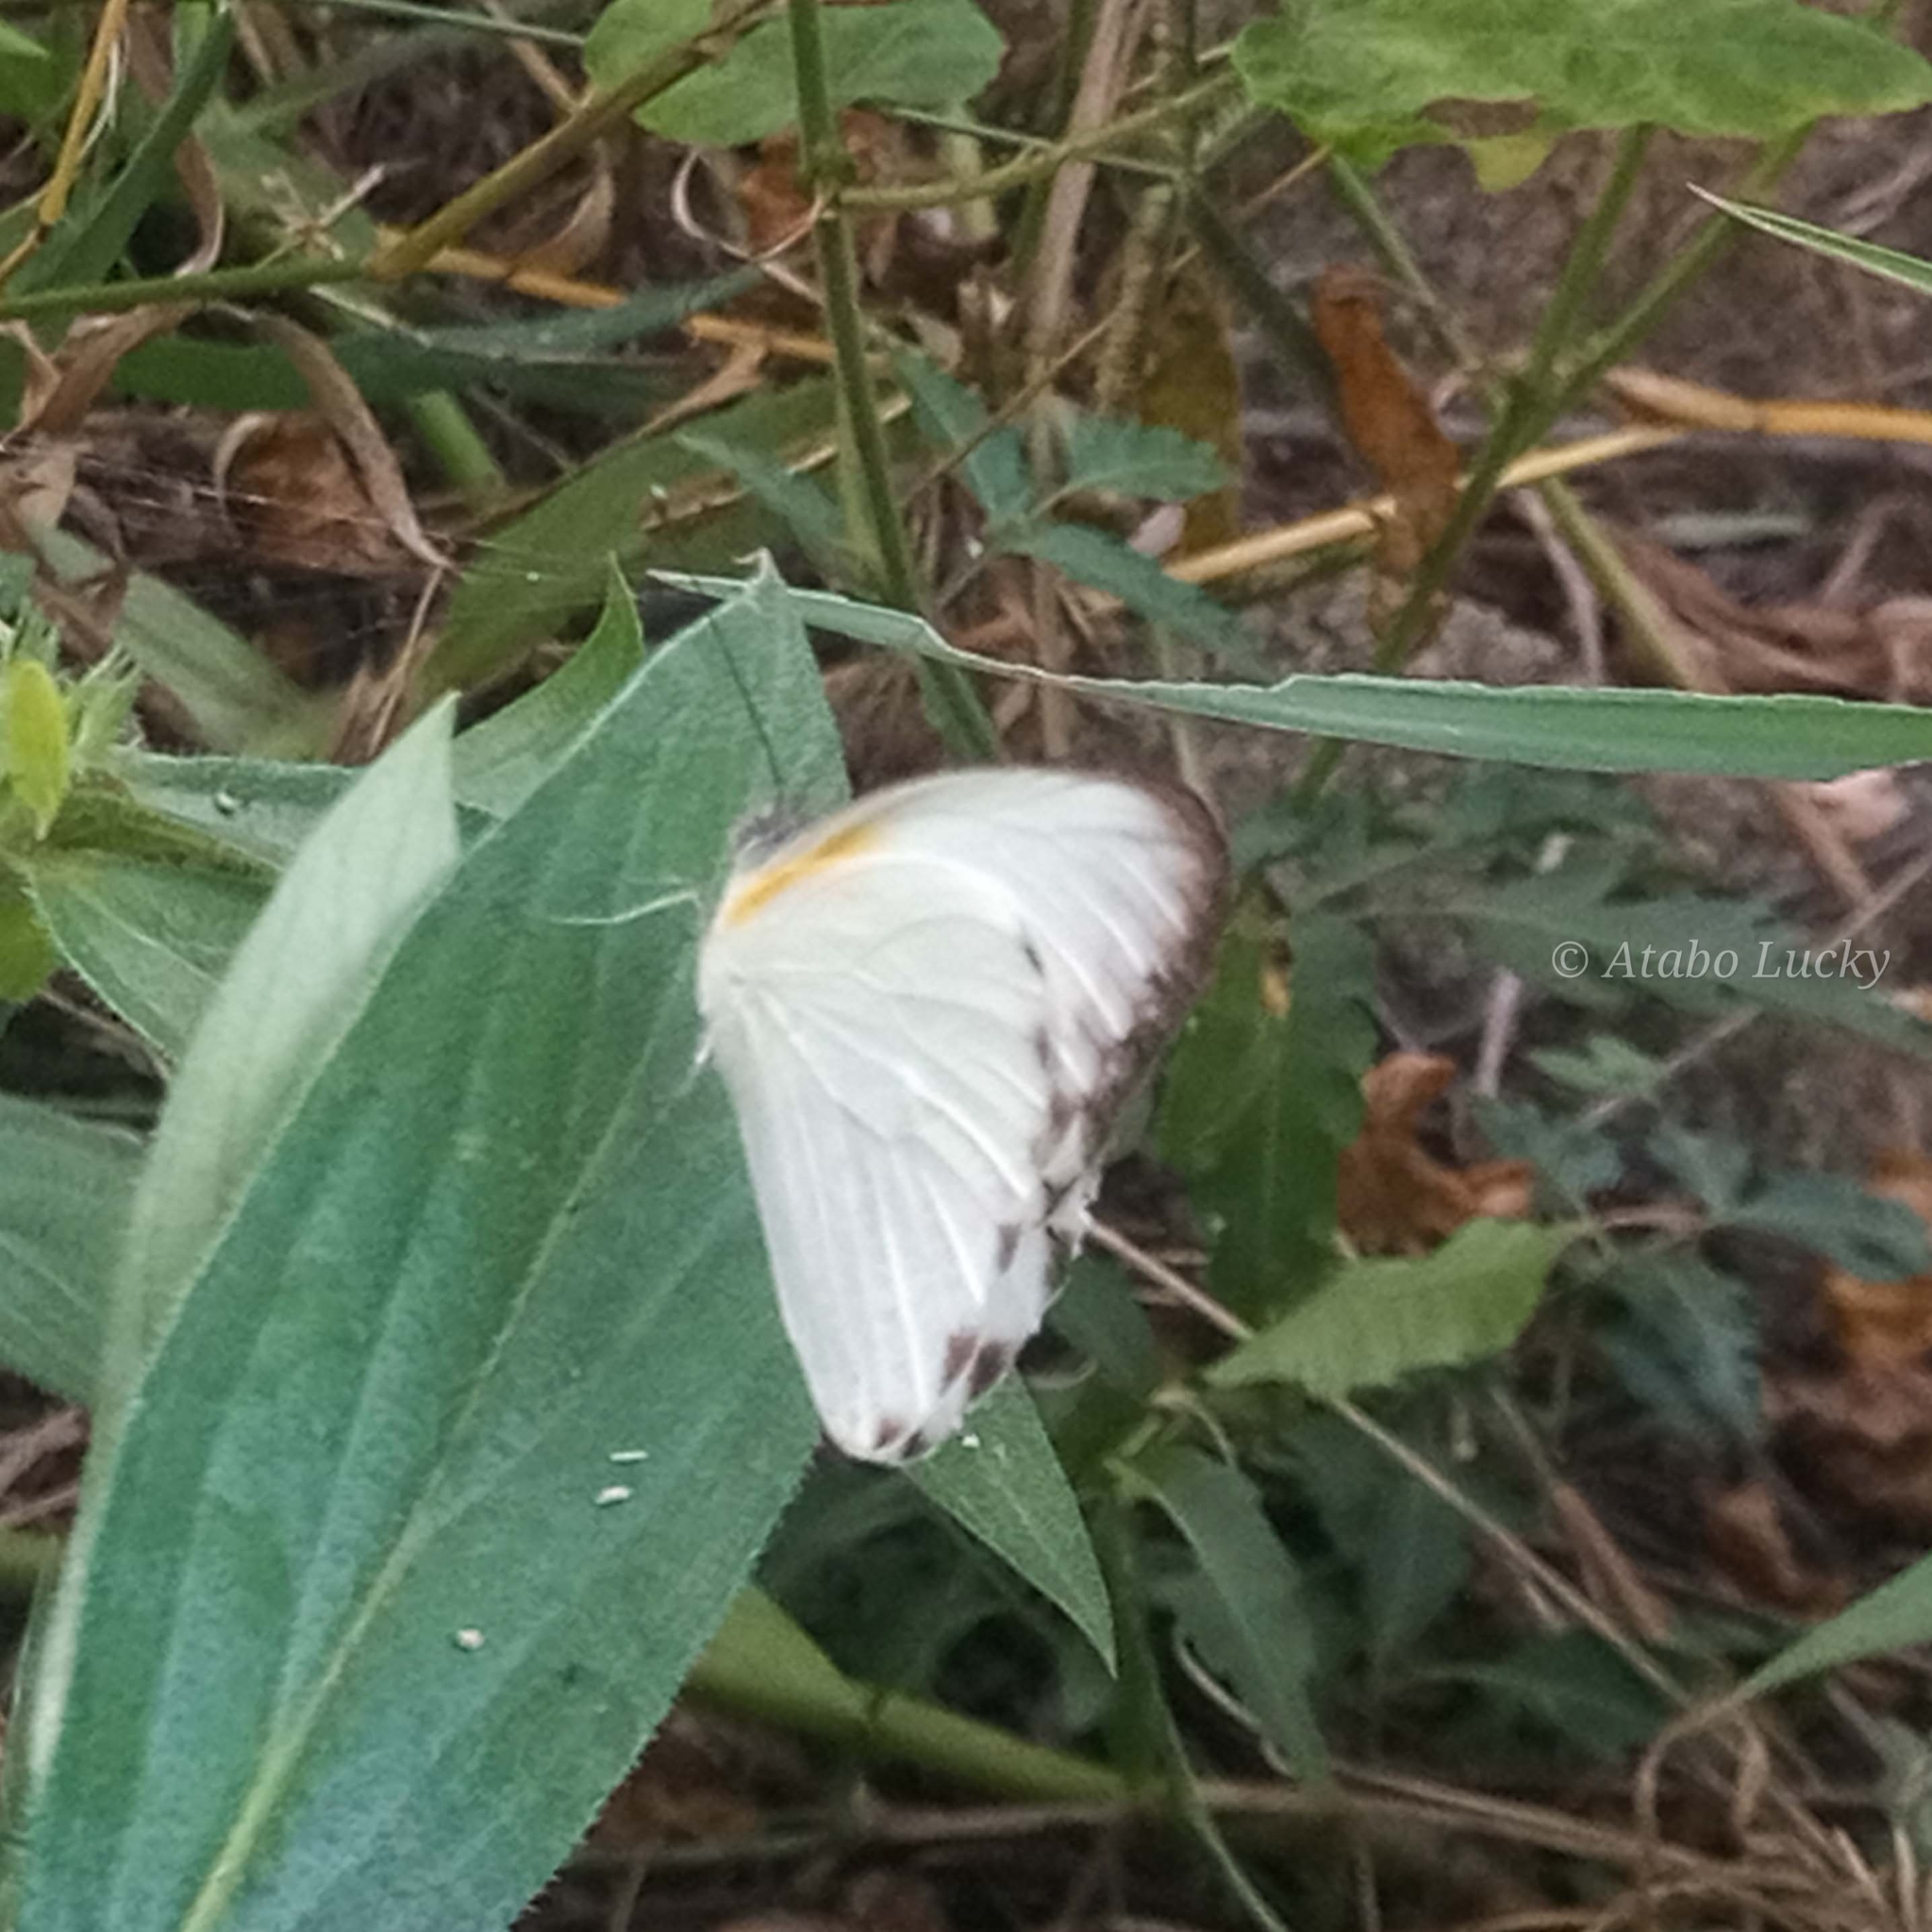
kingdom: Animalia
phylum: Arthropoda
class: Insecta
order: Lepidoptera
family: Pieridae
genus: Glutophrissa
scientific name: Glutophrissa epaphia
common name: African albatross
